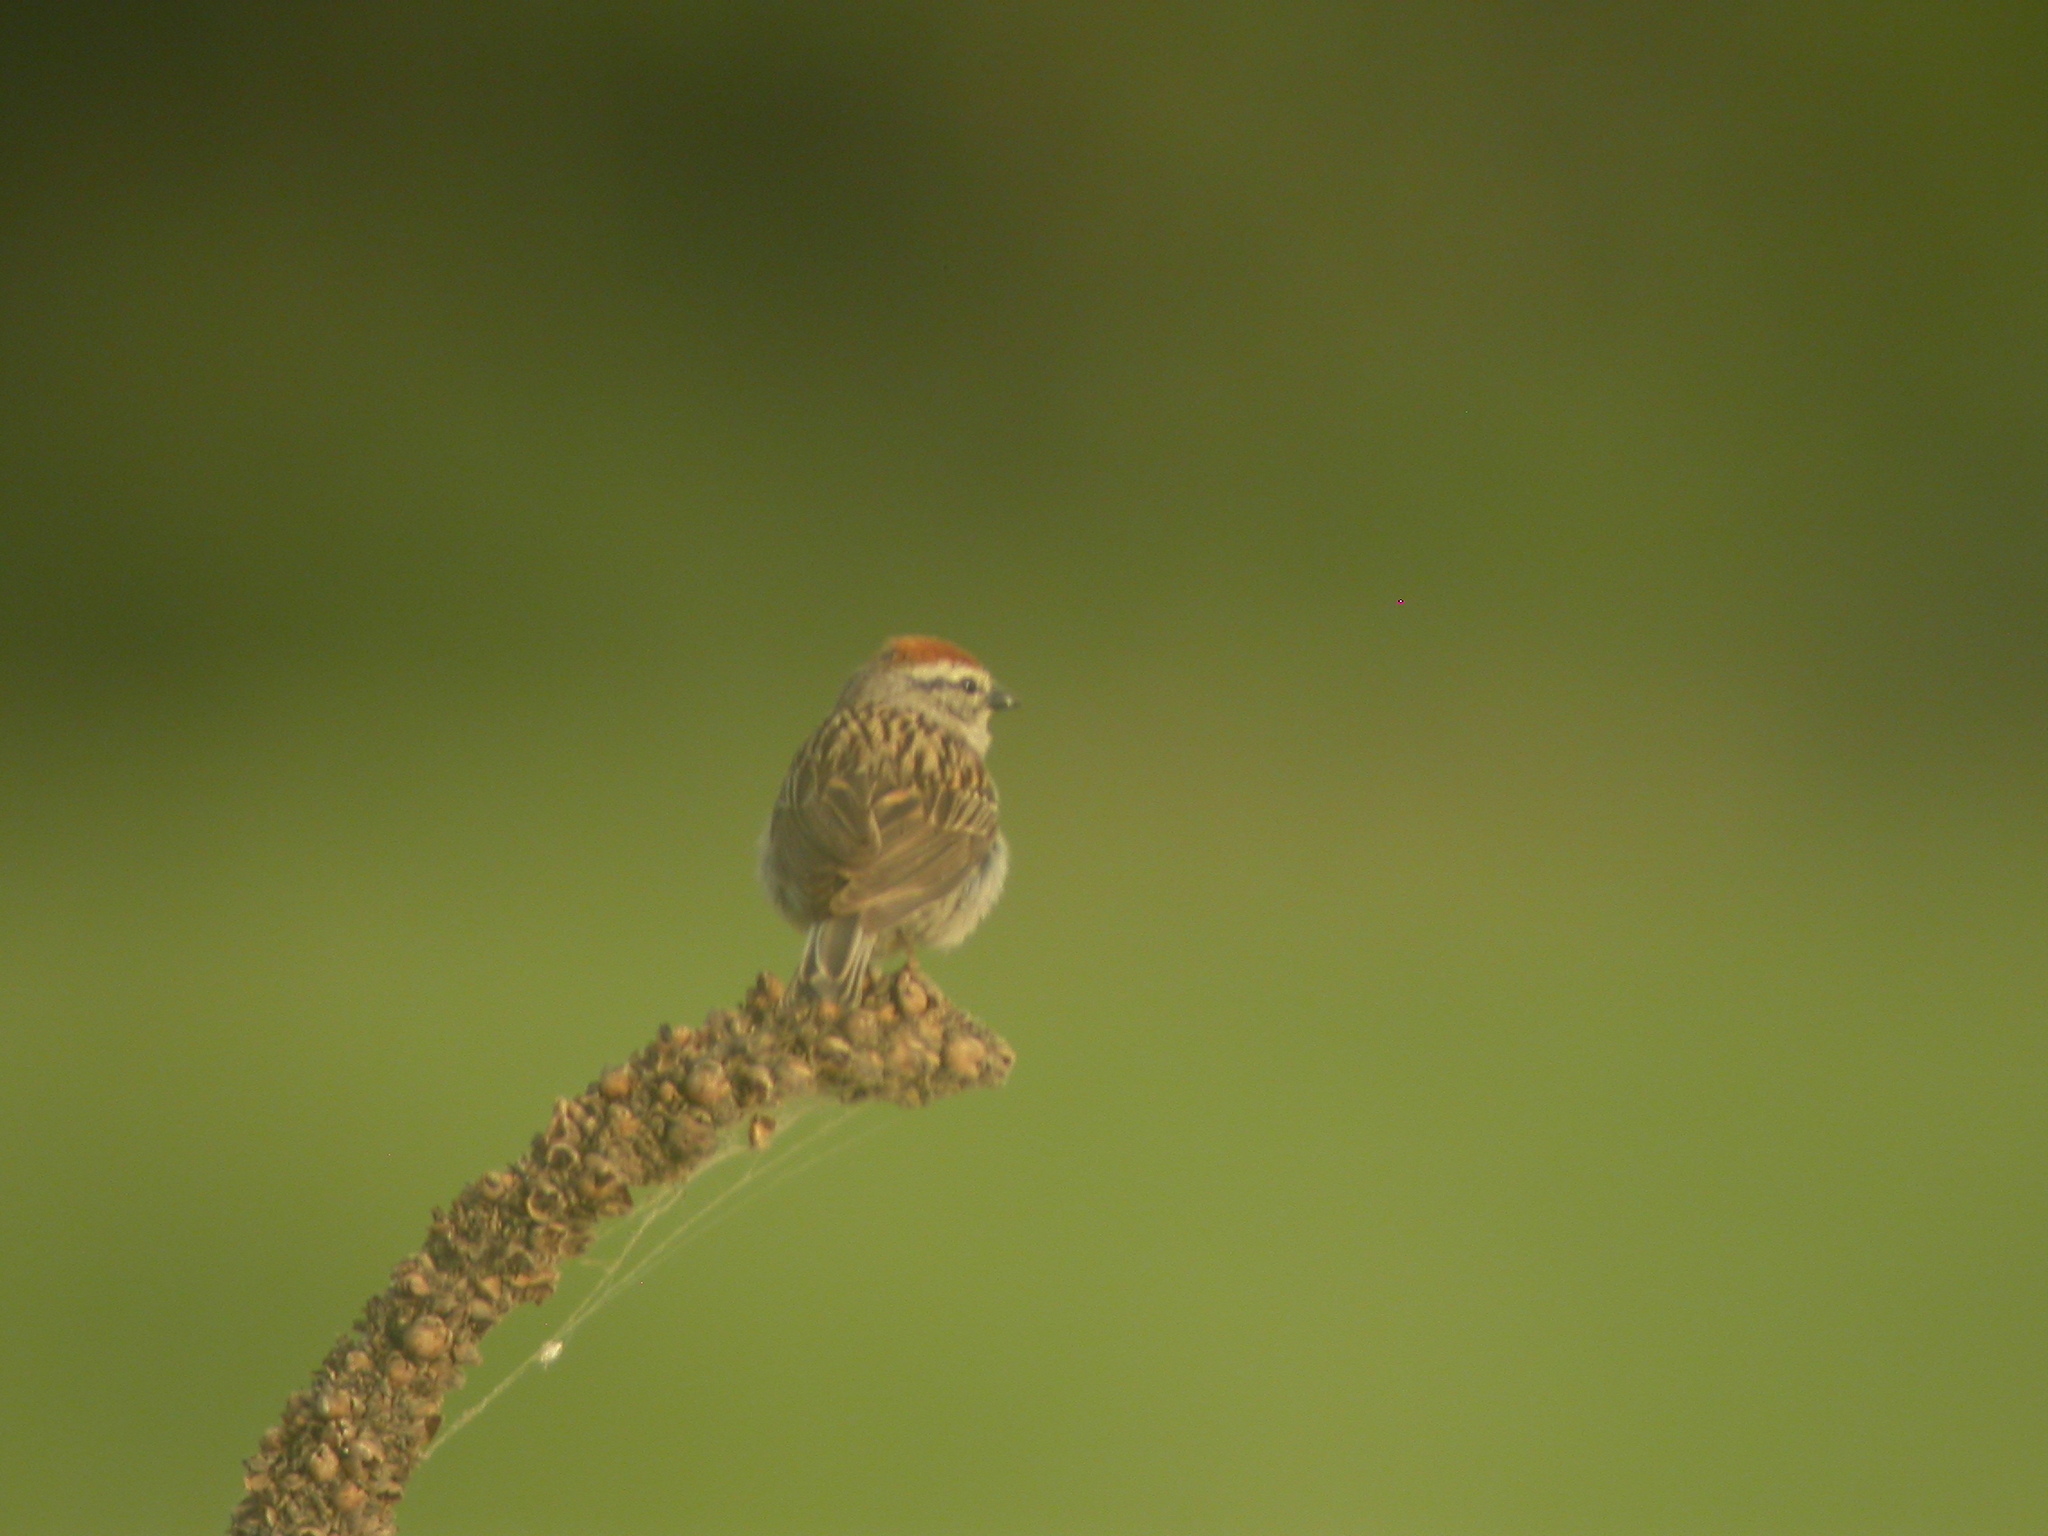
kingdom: Animalia
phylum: Chordata
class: Aves
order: Passeriformes
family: Passerellidae
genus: Spizella
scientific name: Spizella passerina
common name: Chipping sparrow
